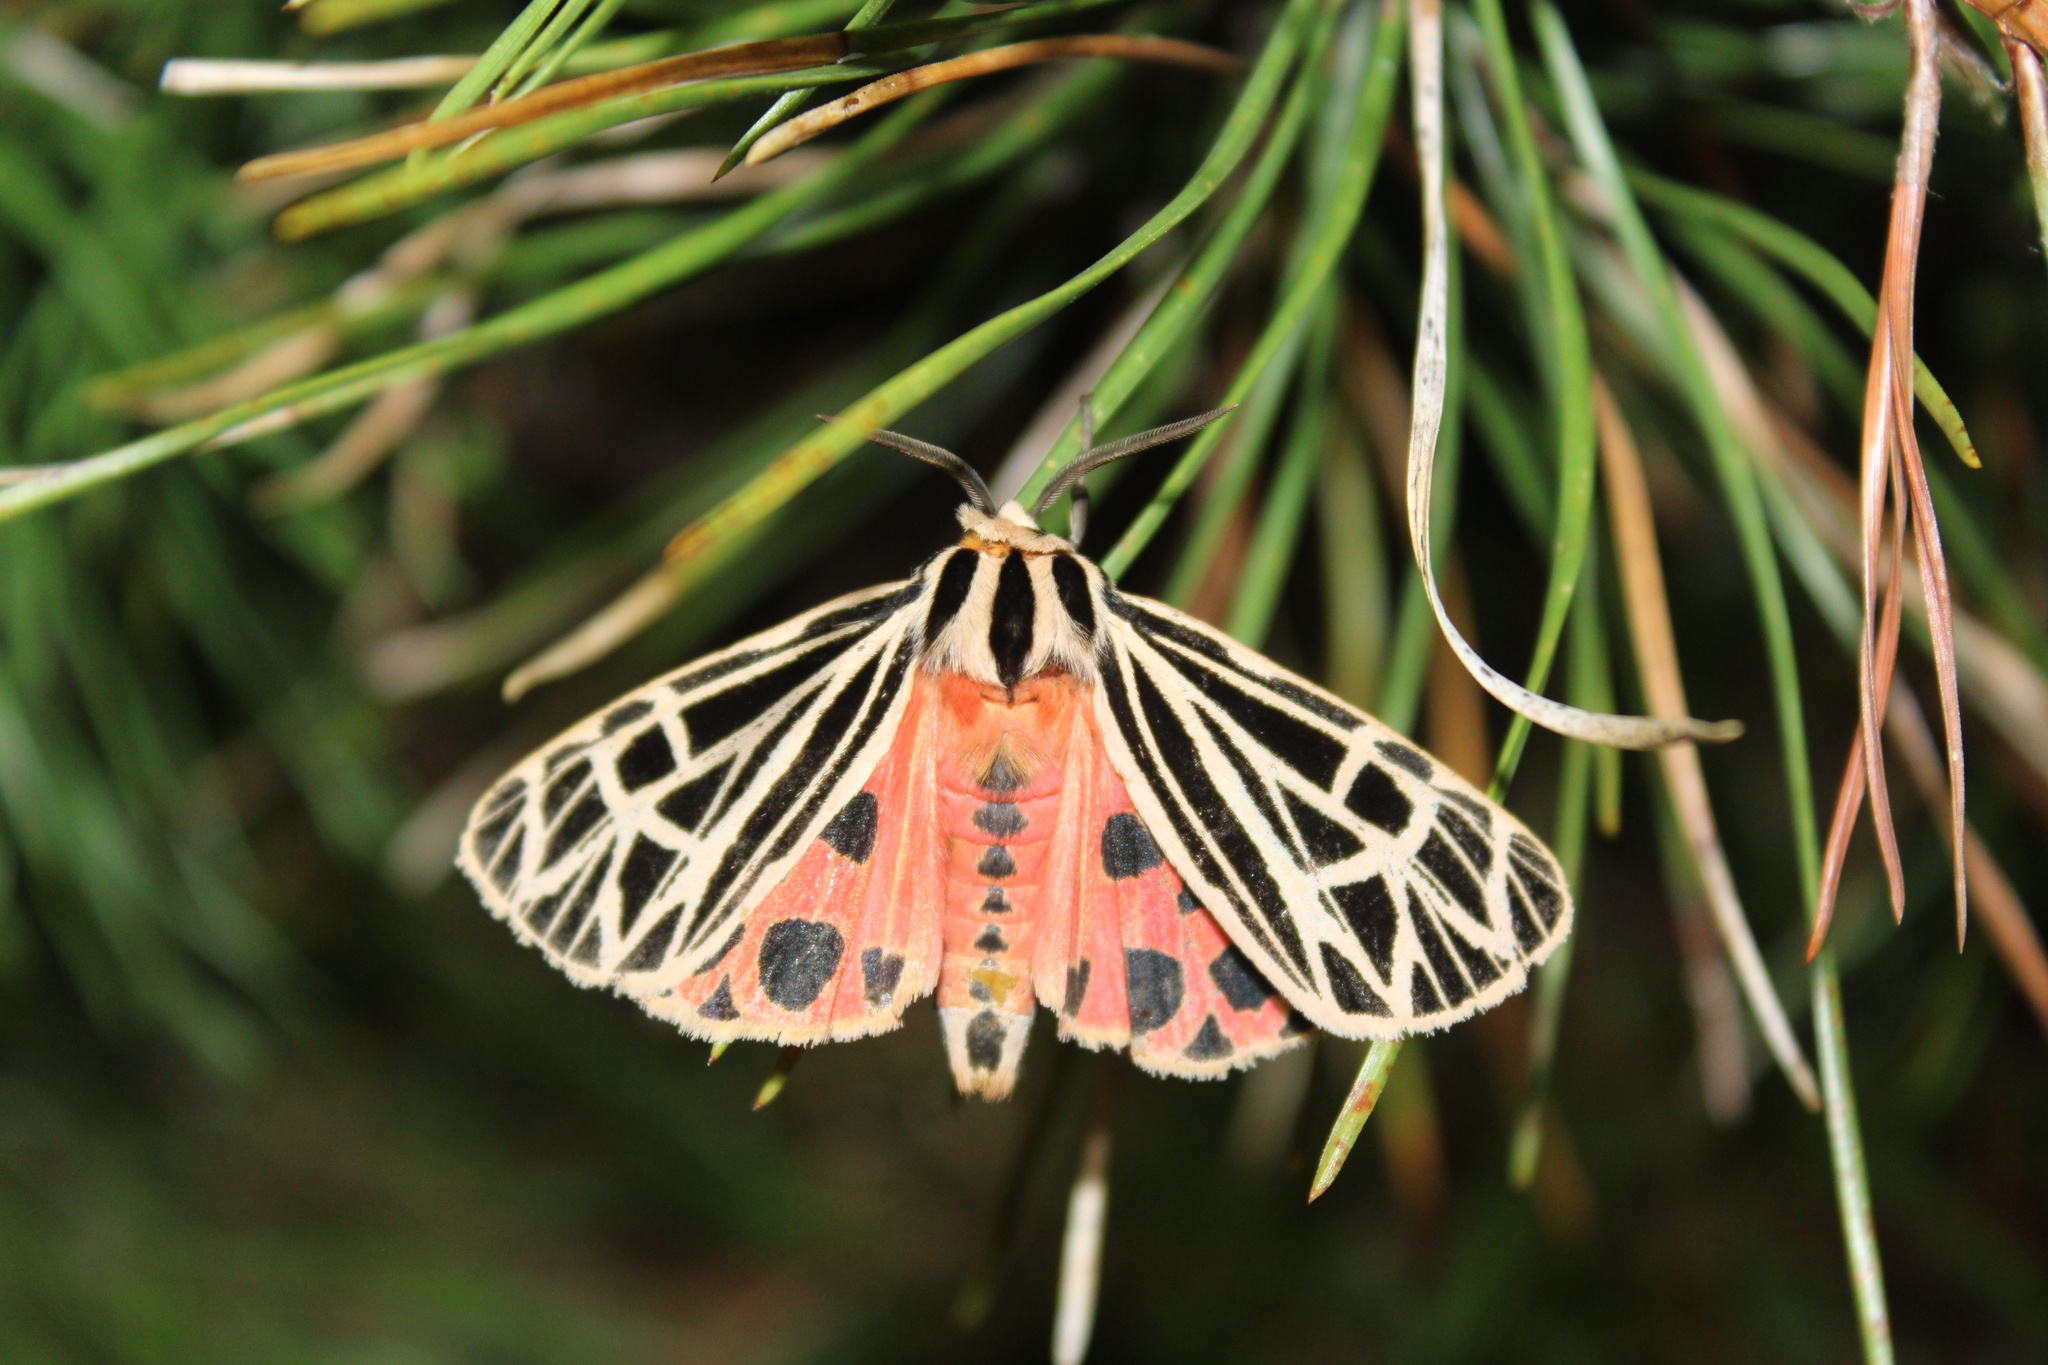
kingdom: Animalia
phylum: Arthropoda
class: Insecta
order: Lepidoptera
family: Erebidae
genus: Grammia
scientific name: Grammia virgo
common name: Virgin tiger moth
